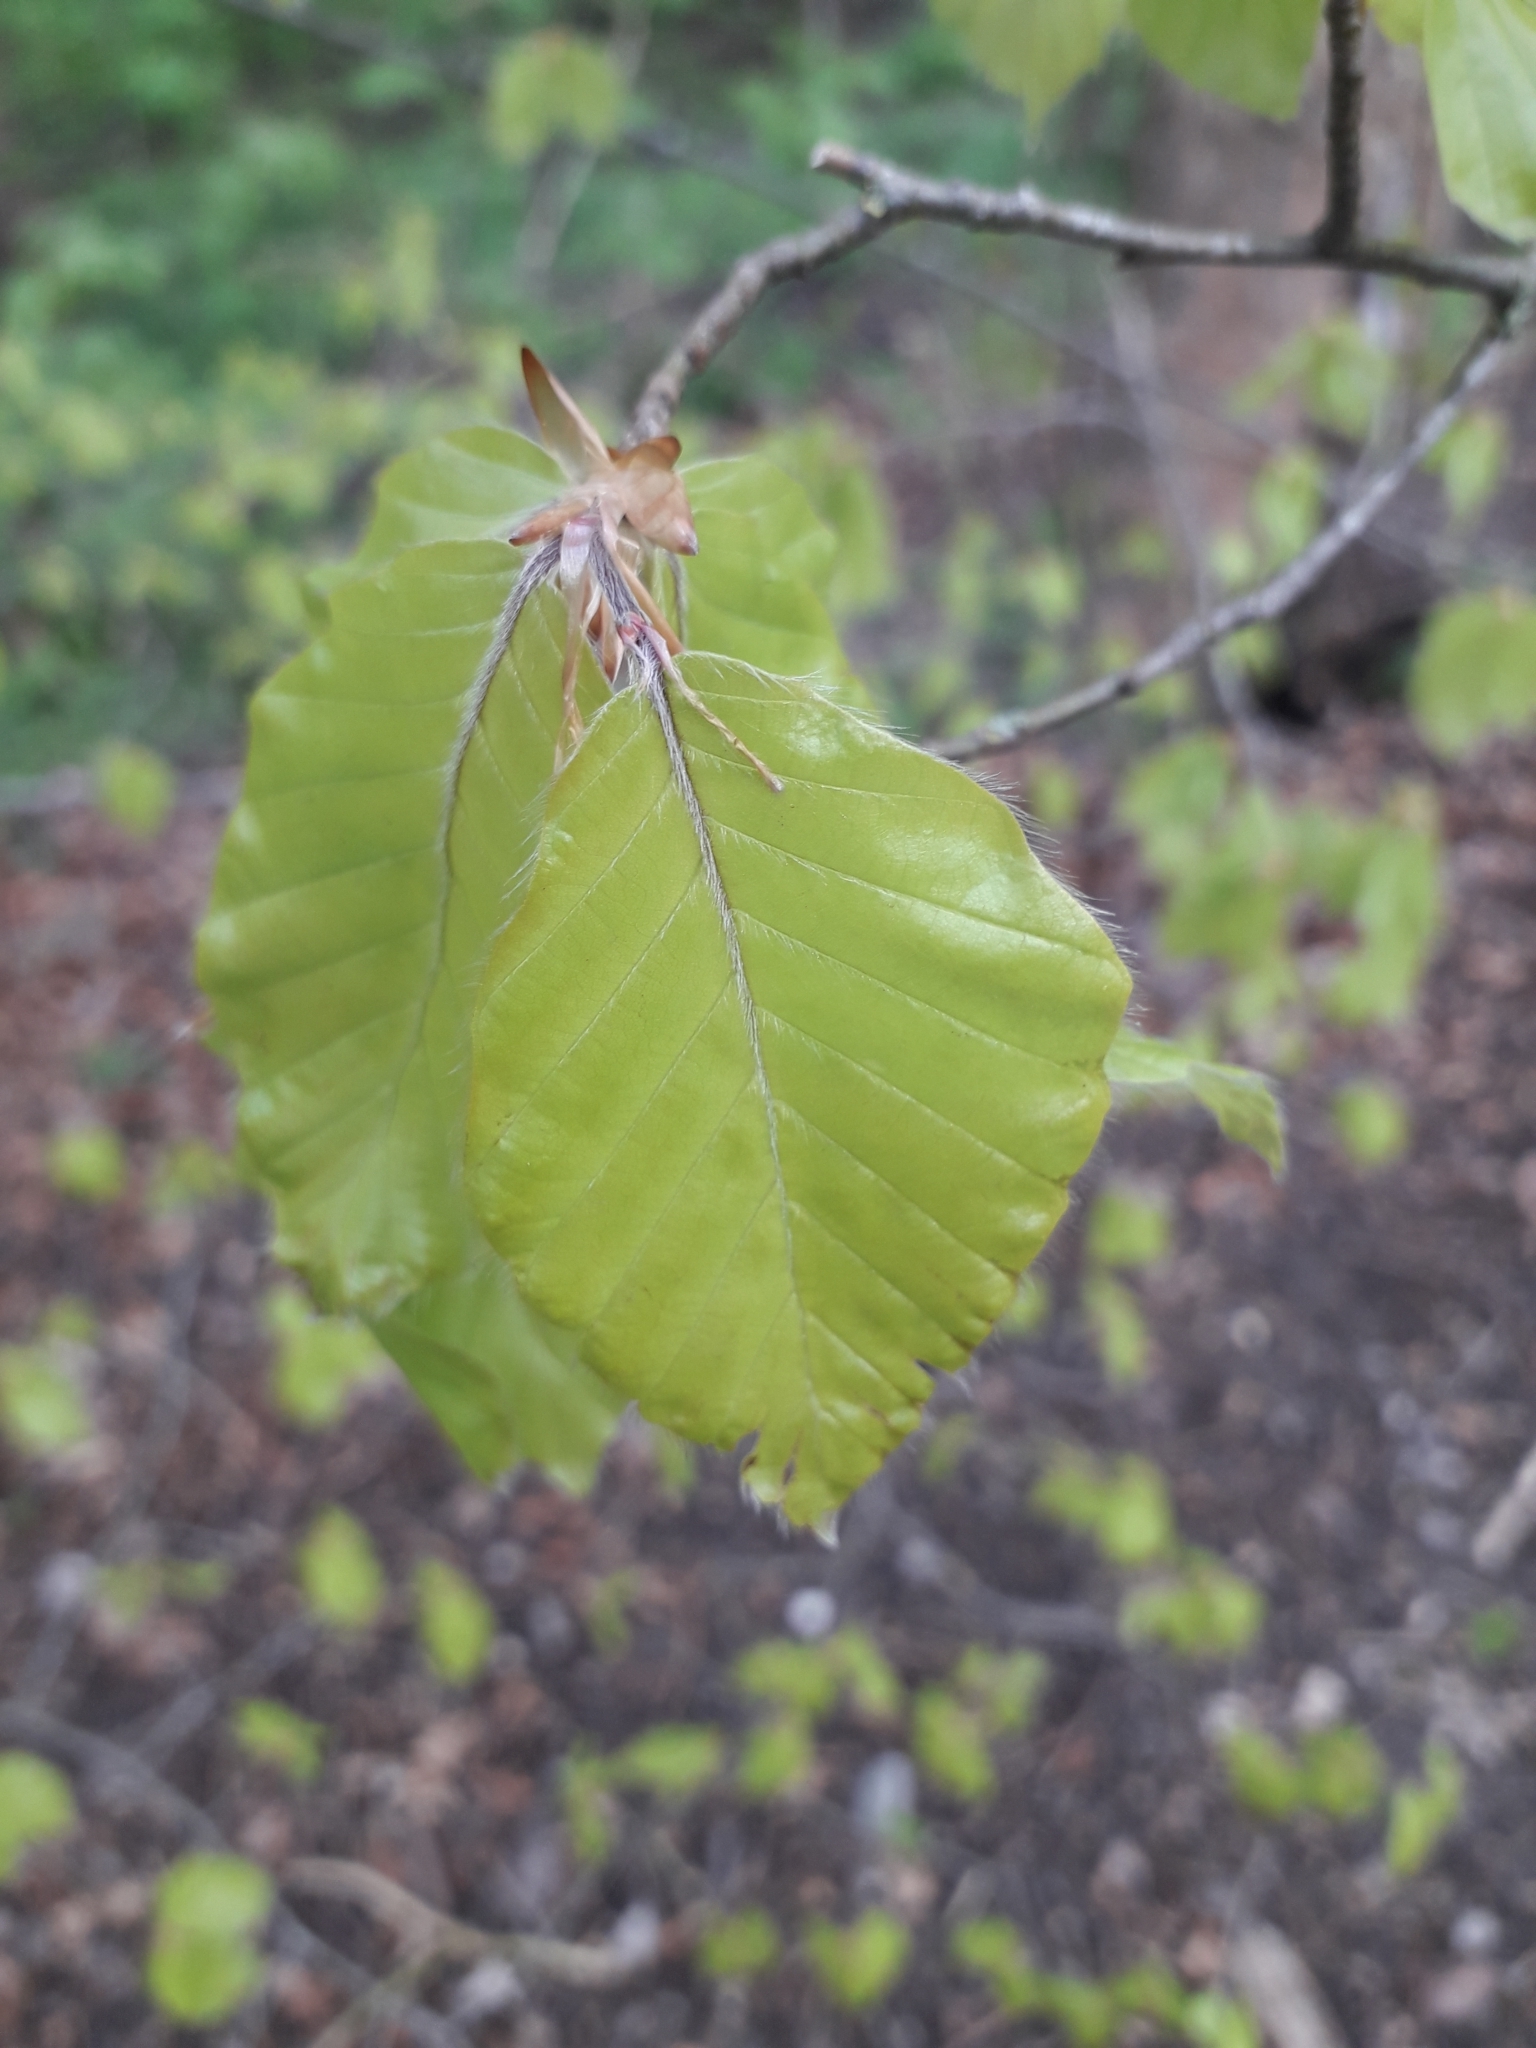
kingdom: Plantae
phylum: Tracheophyta
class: Magnoliopsida
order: Fagales
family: Fagaceae
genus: Fagus
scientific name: Fagus sylvatica
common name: Beech
